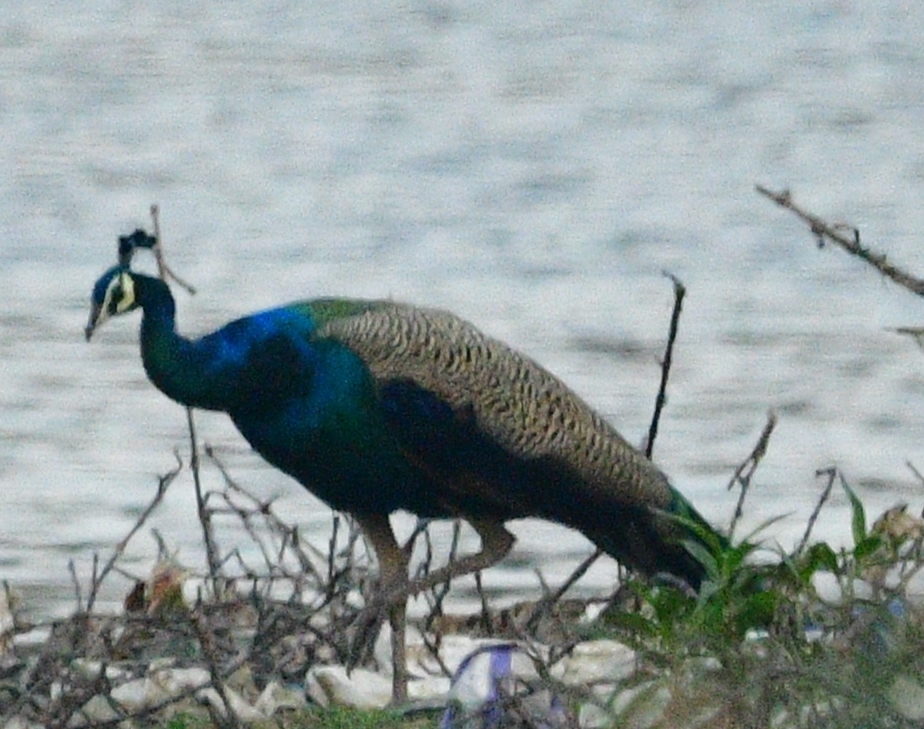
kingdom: Animalia
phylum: Chordata
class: Aves
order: Galliformes
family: Phasianidae
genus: Pavo
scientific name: Pavo cristatus
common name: Indian peafowl
